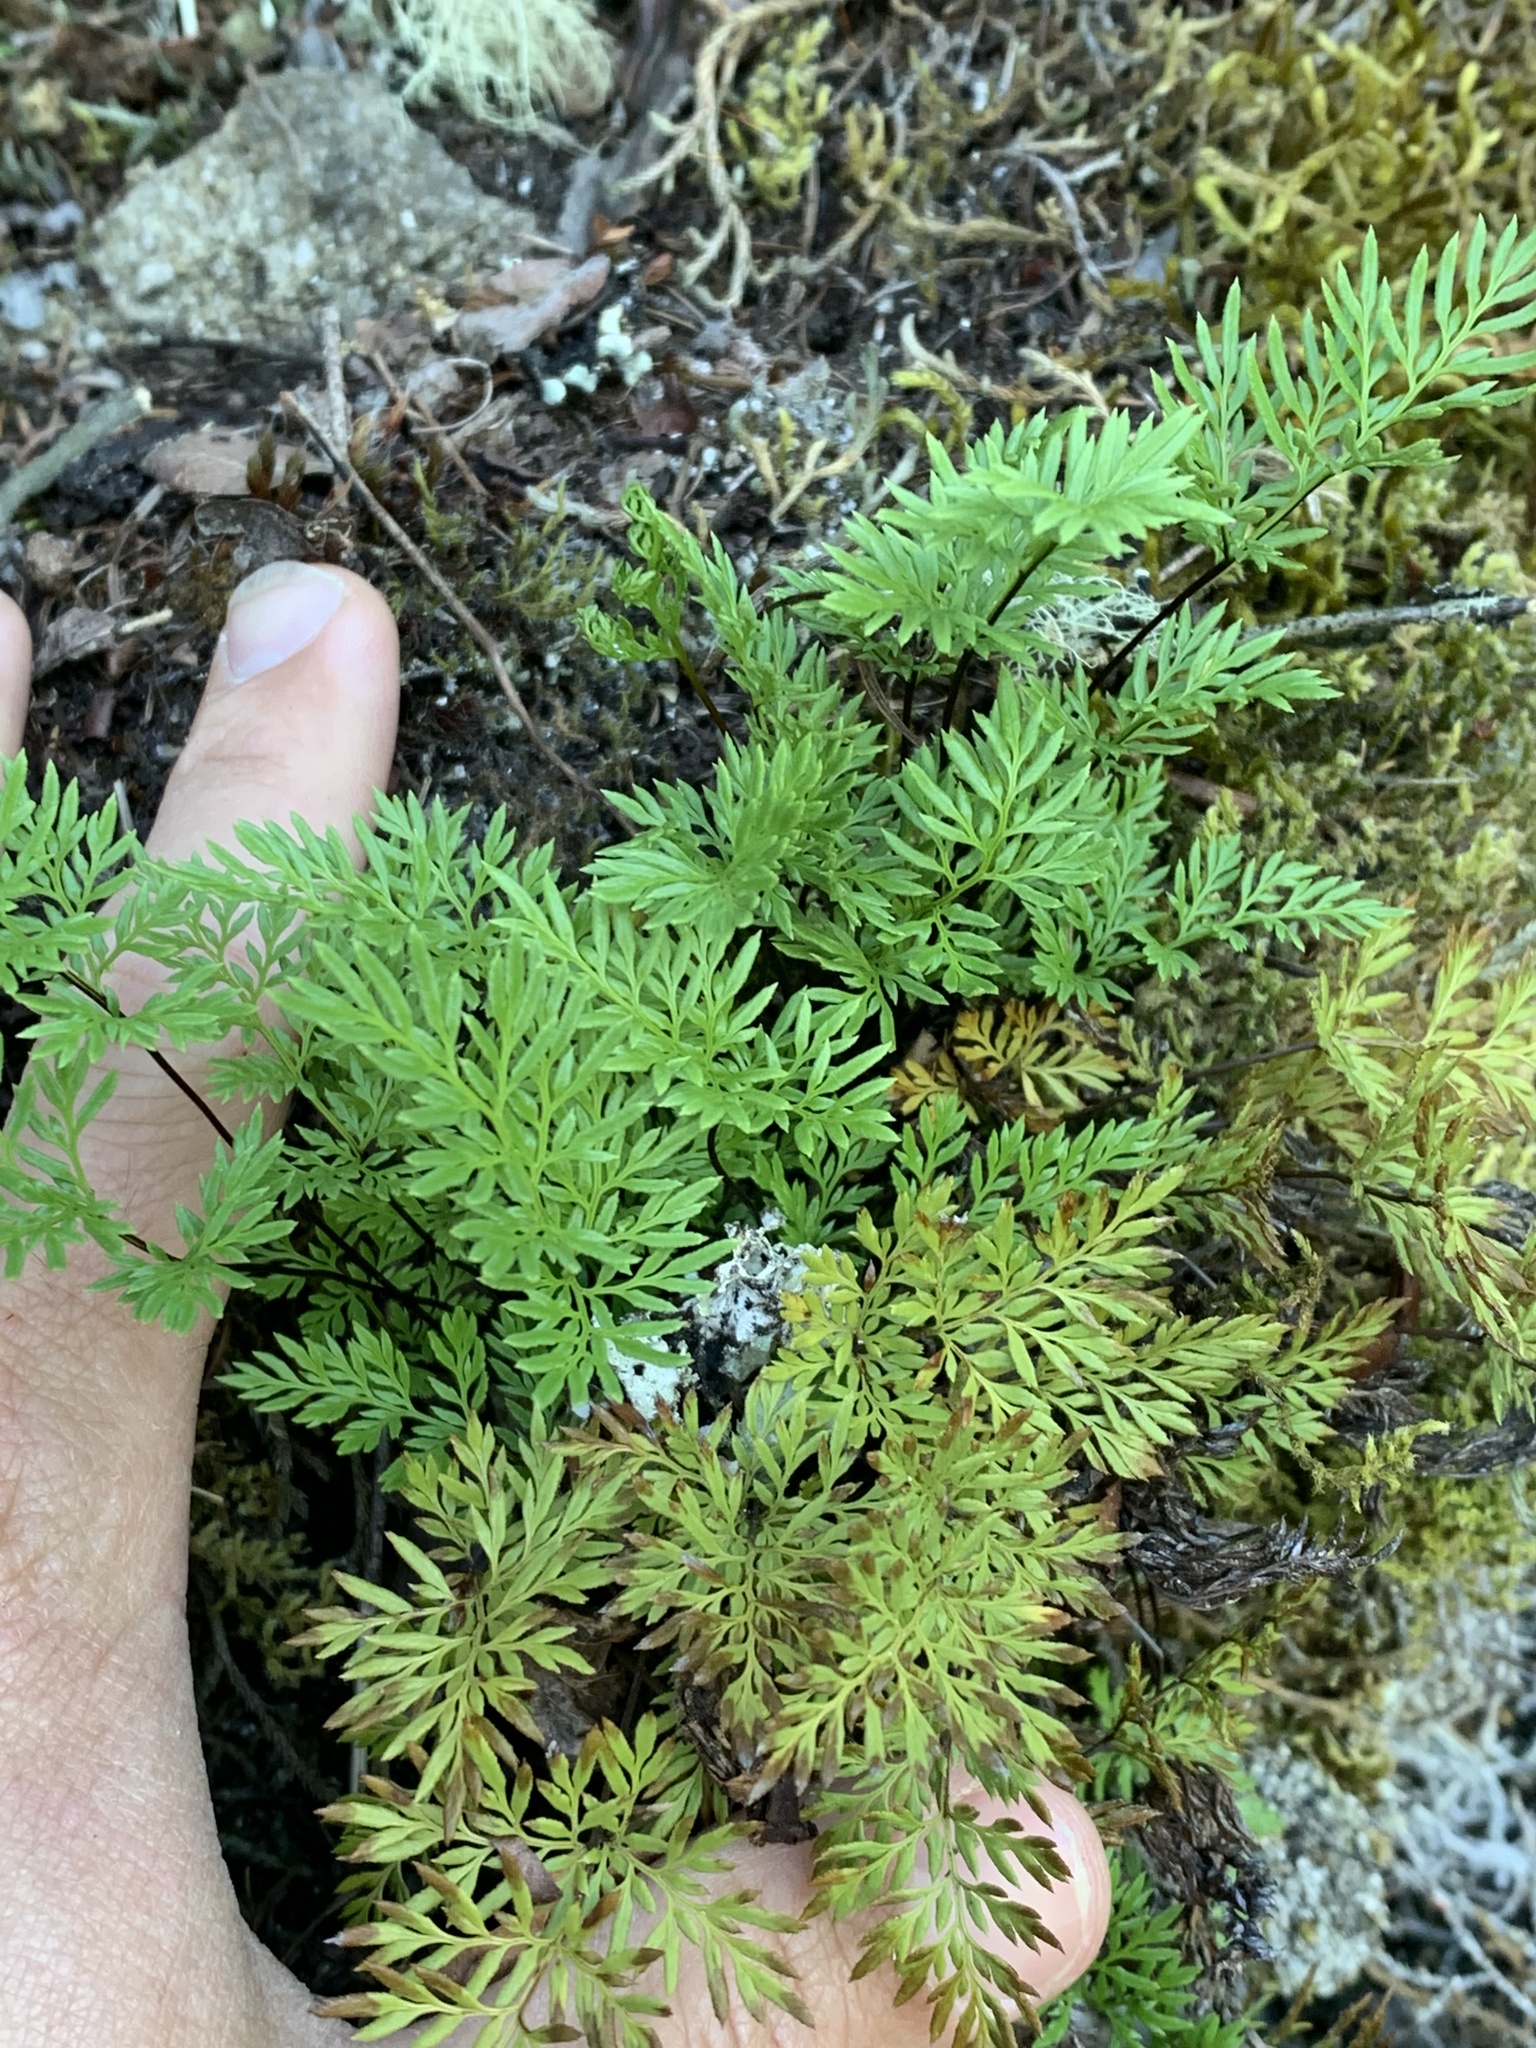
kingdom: Plantae
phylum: Tracheophyta
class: Polypodiopsida
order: Polypodiales
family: Pteridaceae
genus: Aspidotis
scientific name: Aspidotis densa
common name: Indian's dream
